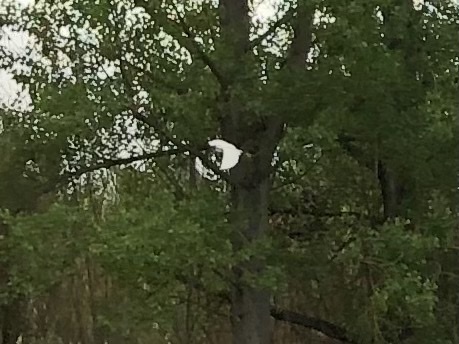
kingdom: Animalia
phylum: Chordata
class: Aves
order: Pelecaniformes
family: Ardeidae
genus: Egretta
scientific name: Egretta garzetta
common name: Little egret
